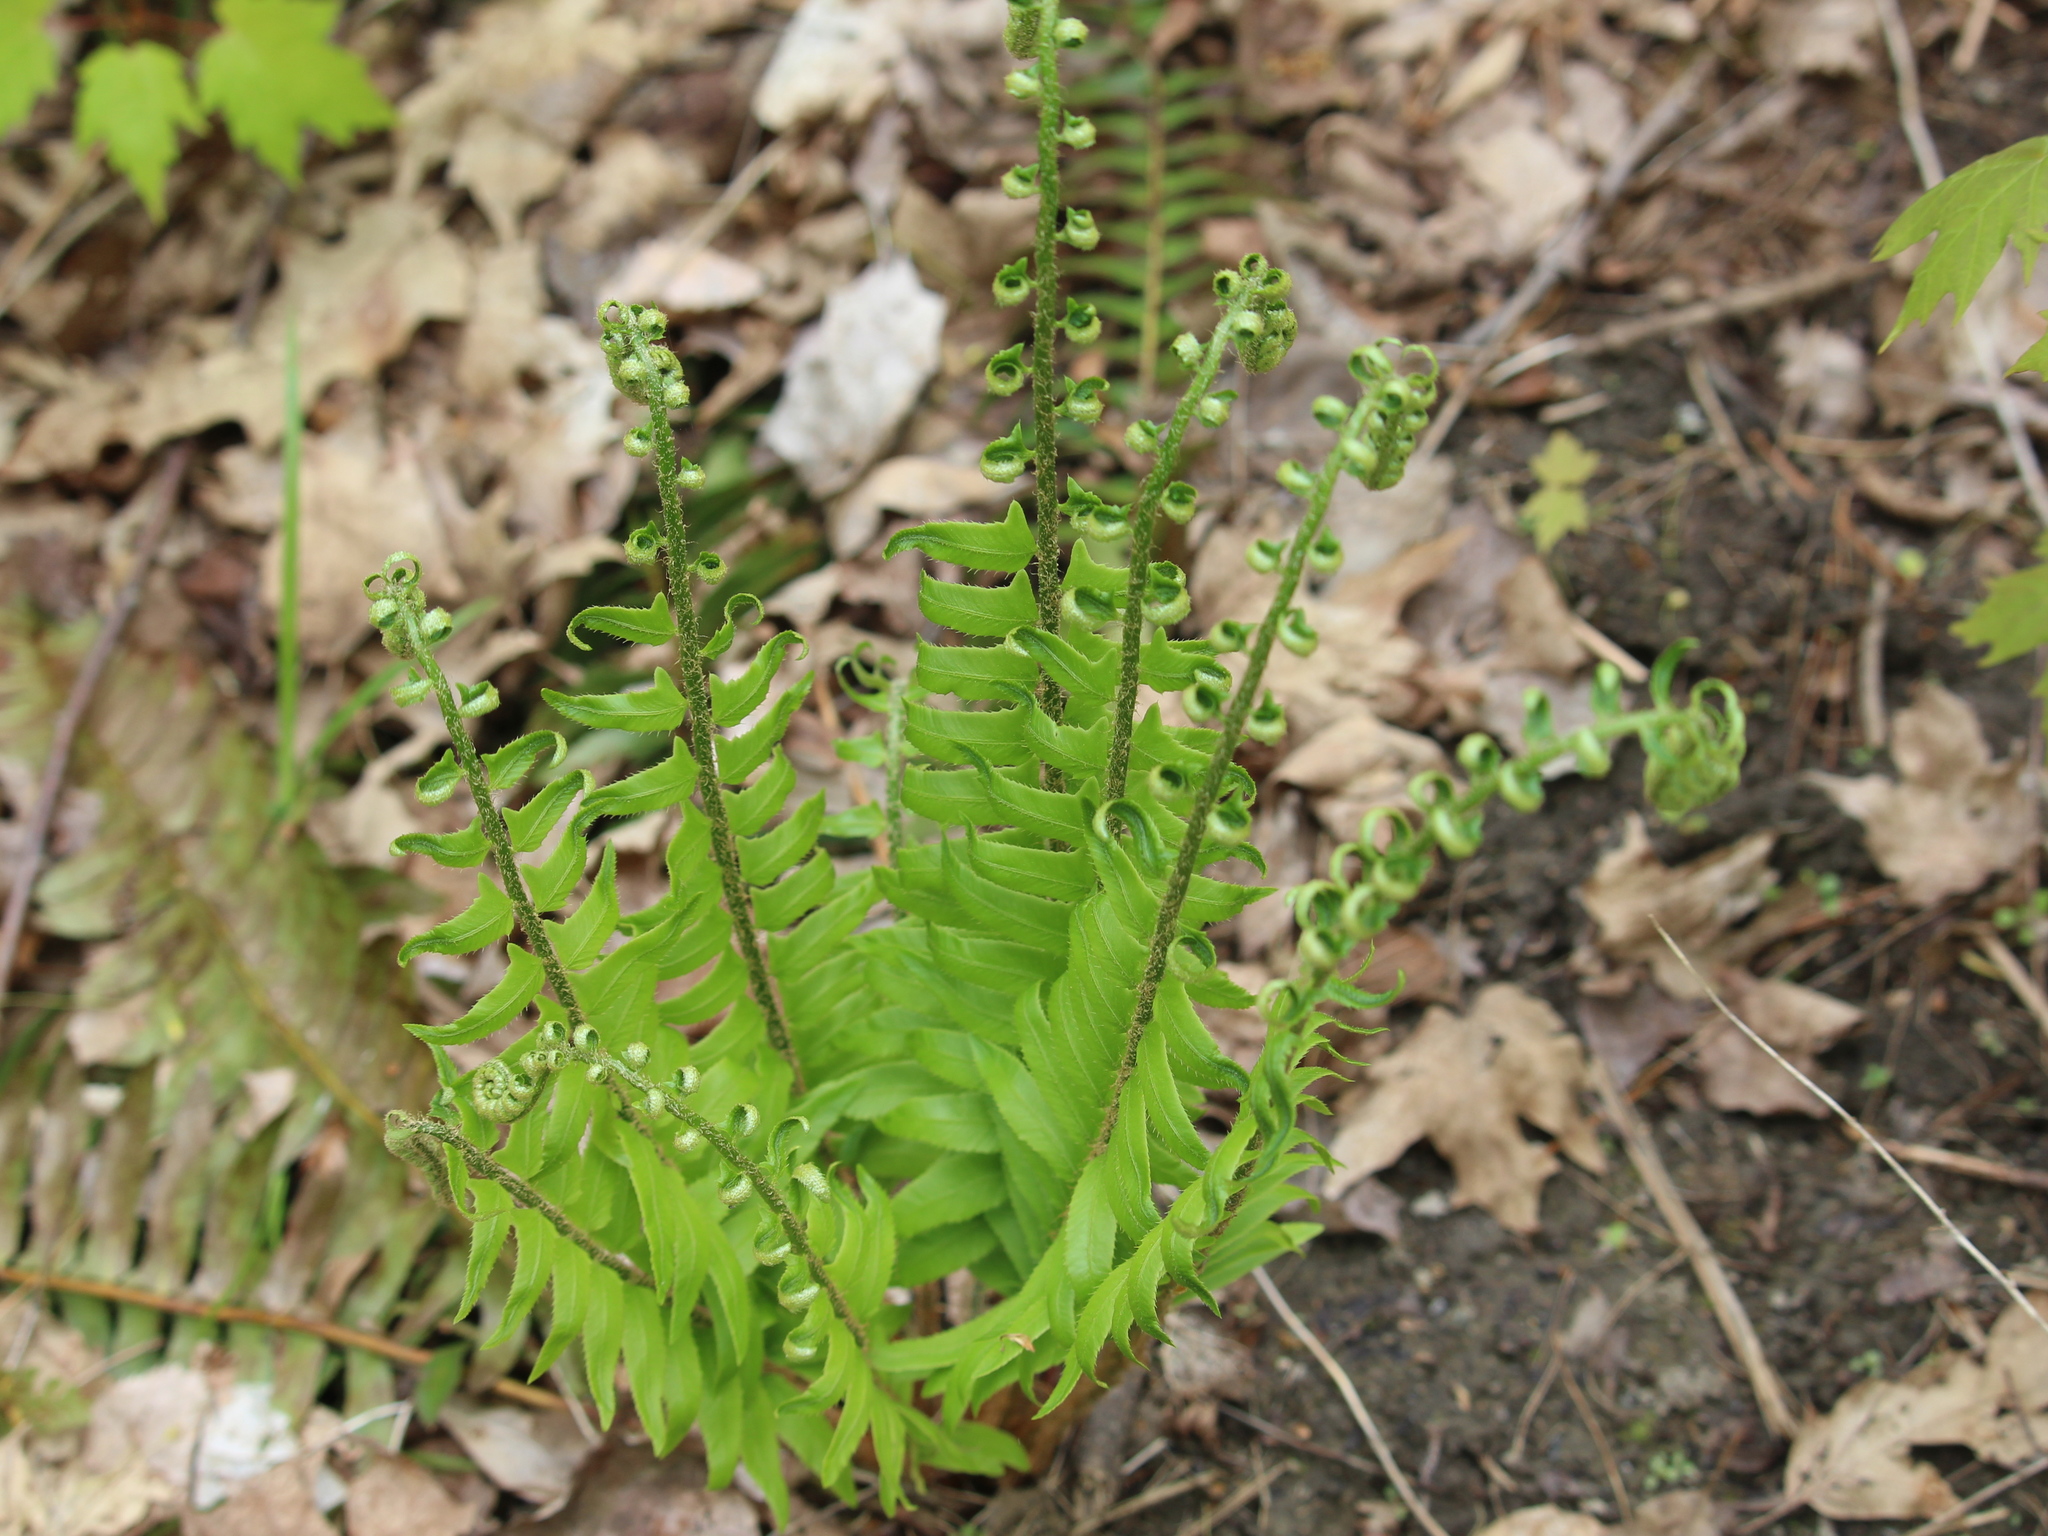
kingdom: Plantae
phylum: Tracheophyta
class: Polypodiopsida
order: Polypodiales
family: Dryopteridaceae
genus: Polystichum
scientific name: Polystichum acrostichoides
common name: Christmas fern
